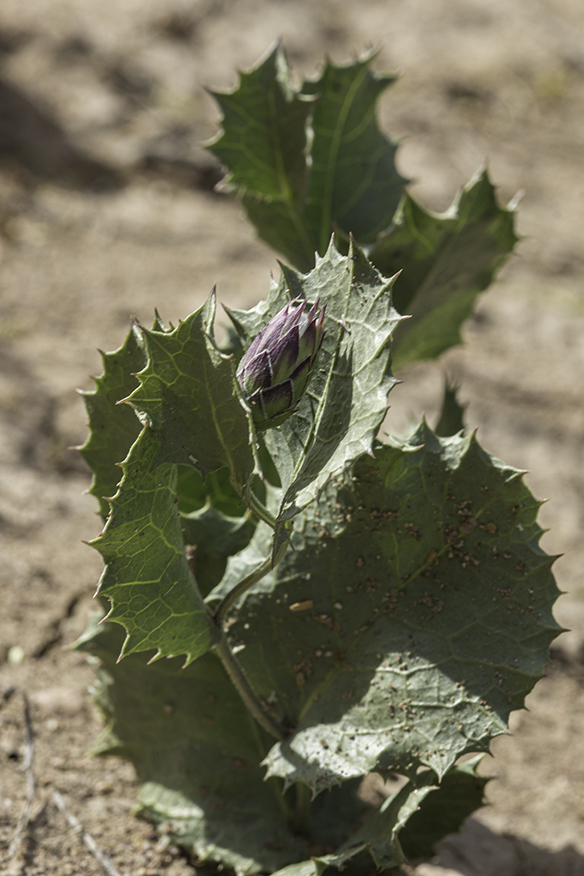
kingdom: Plantae
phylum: Tracheophyta
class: Magnoliopsida
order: Asterales
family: Asteraceae
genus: Acourtia
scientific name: Acourtia nana
